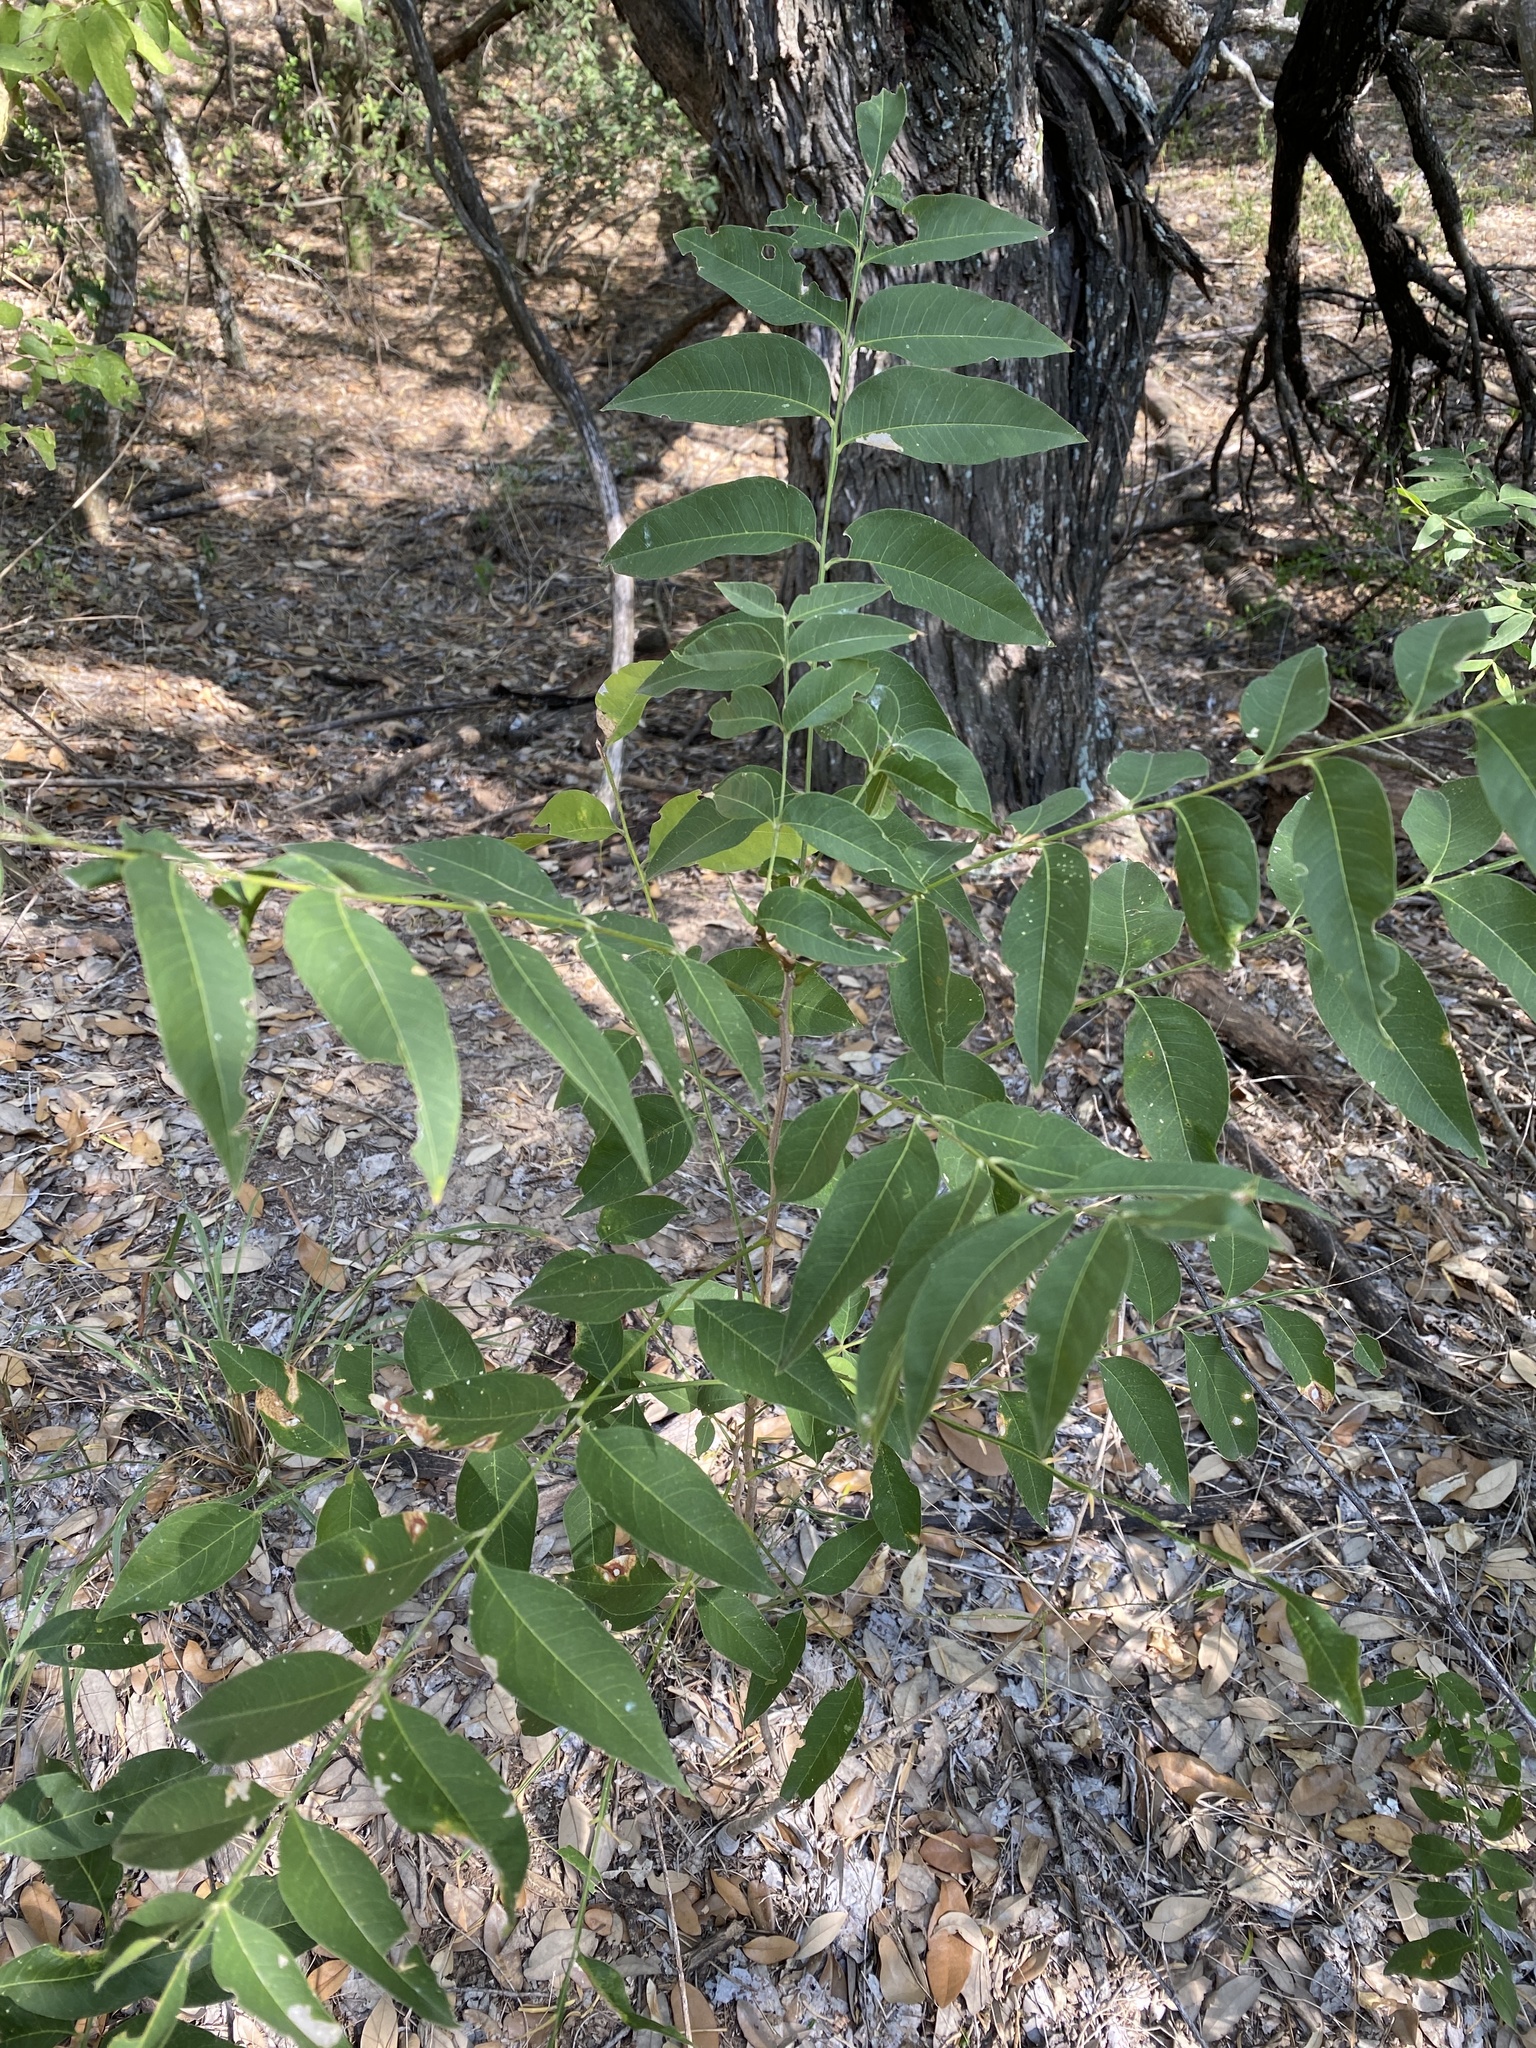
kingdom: Plantae
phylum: Tracheophyta
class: Magnoliopsida
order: Sapindales
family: Sapindaceae
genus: Sapindus
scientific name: Sapindus drummondii
